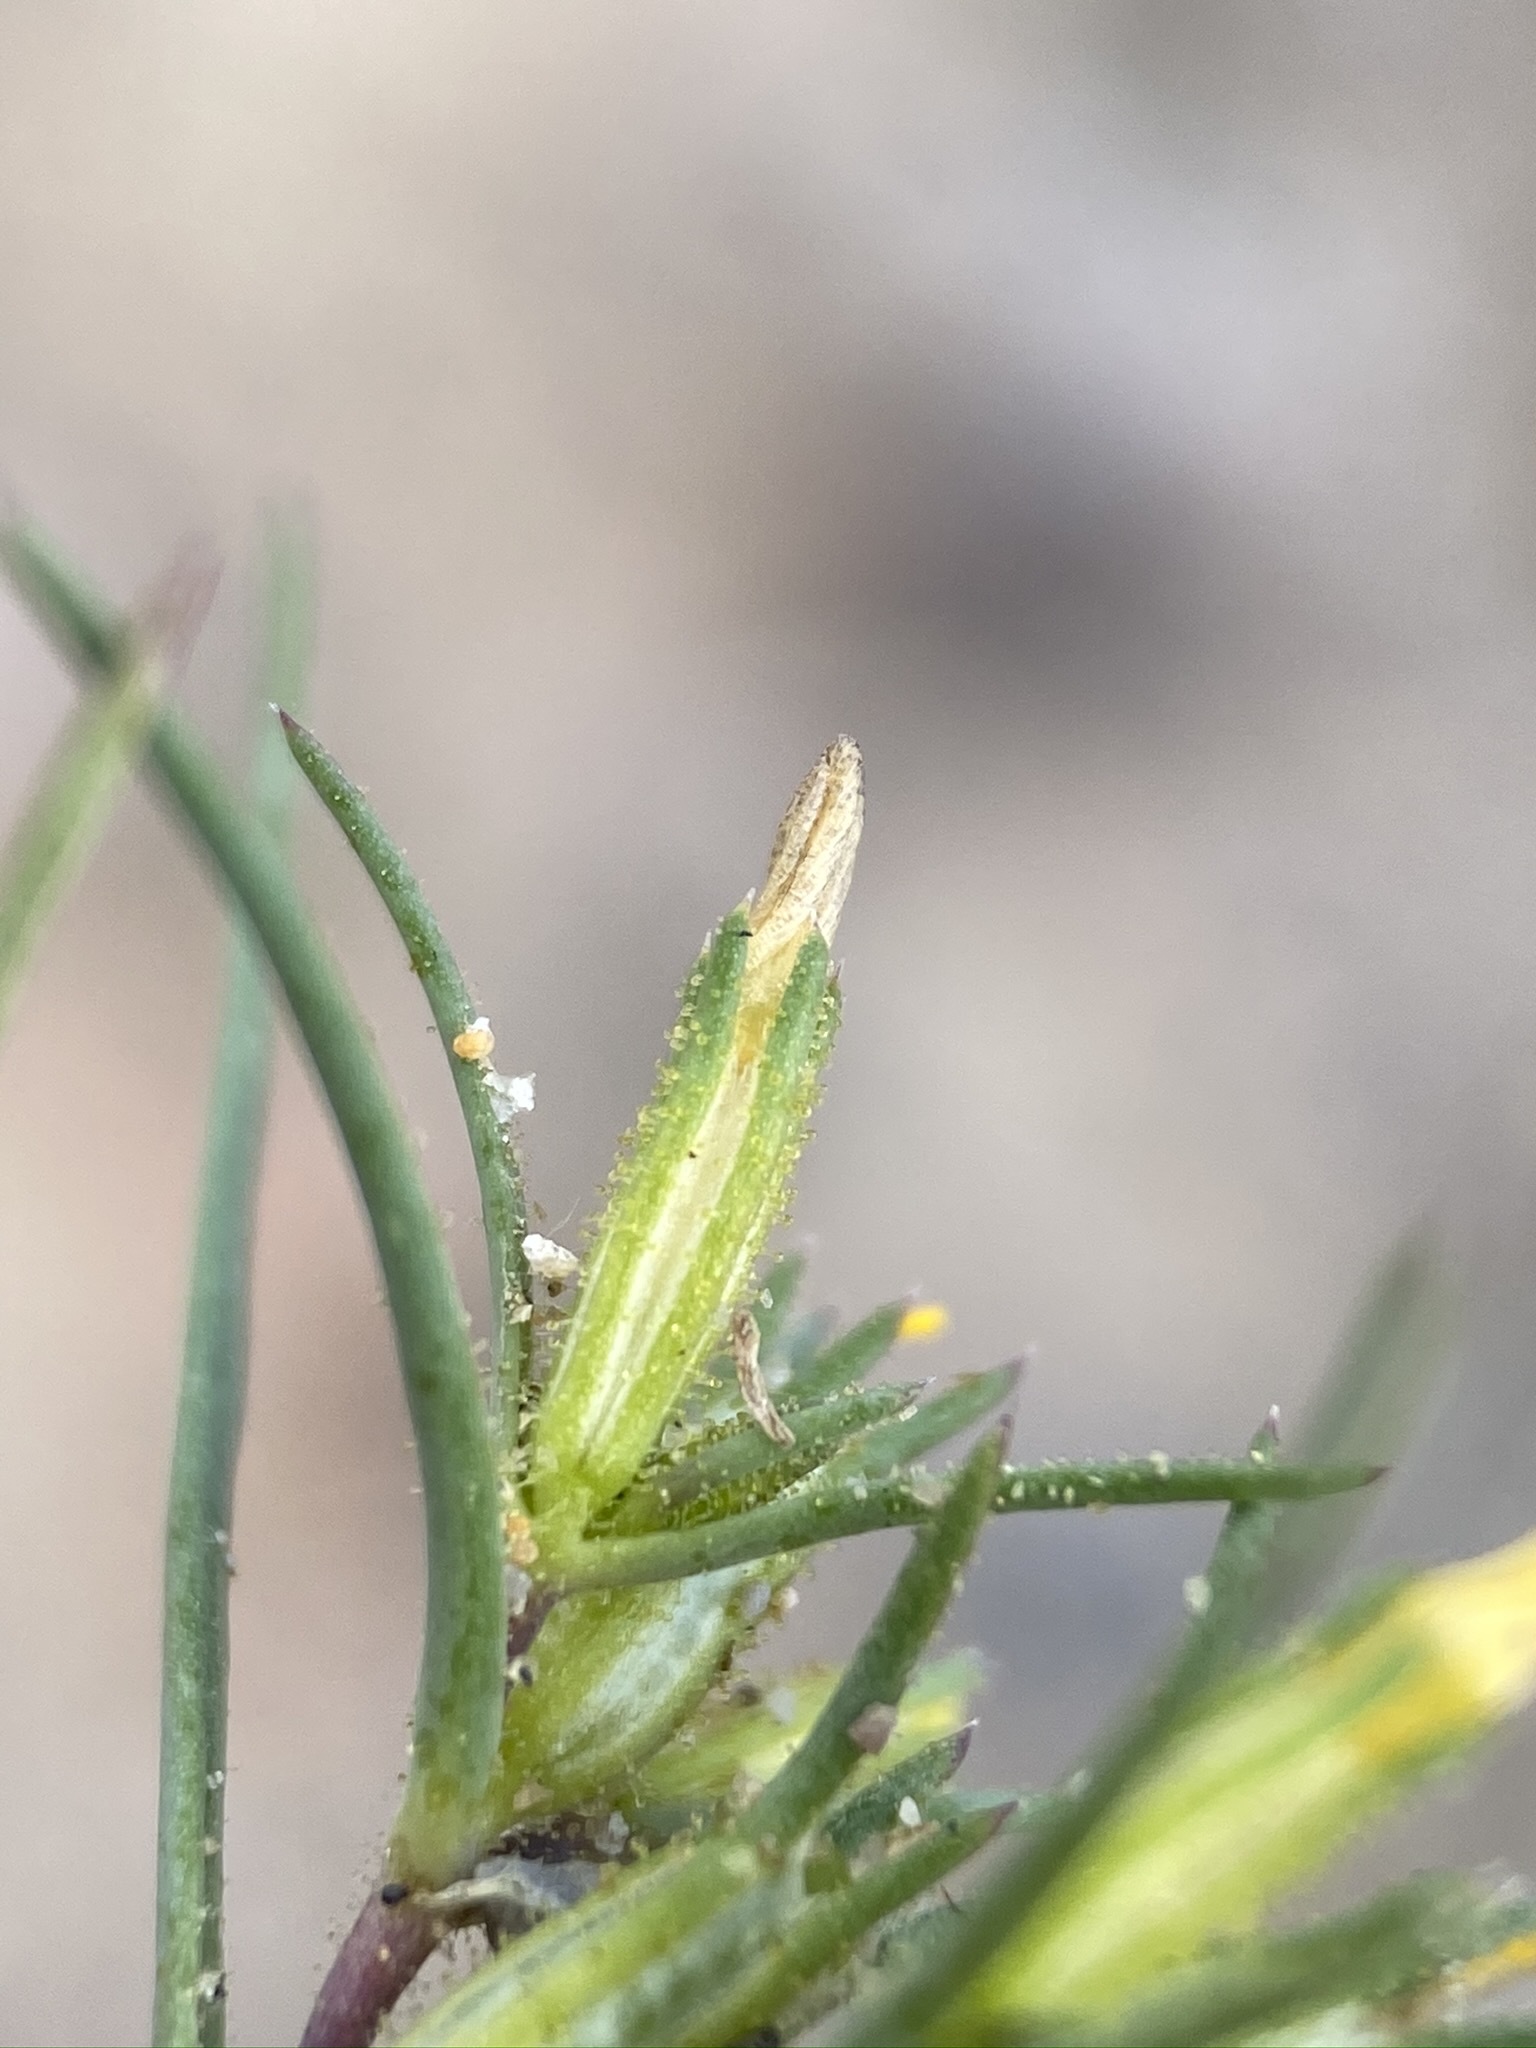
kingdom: Plantae
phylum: Tracheophyta
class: Magnoliopsida
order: Ericales
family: Polemoniaceae
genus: Linanthus
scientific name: Linanthus jonesii
